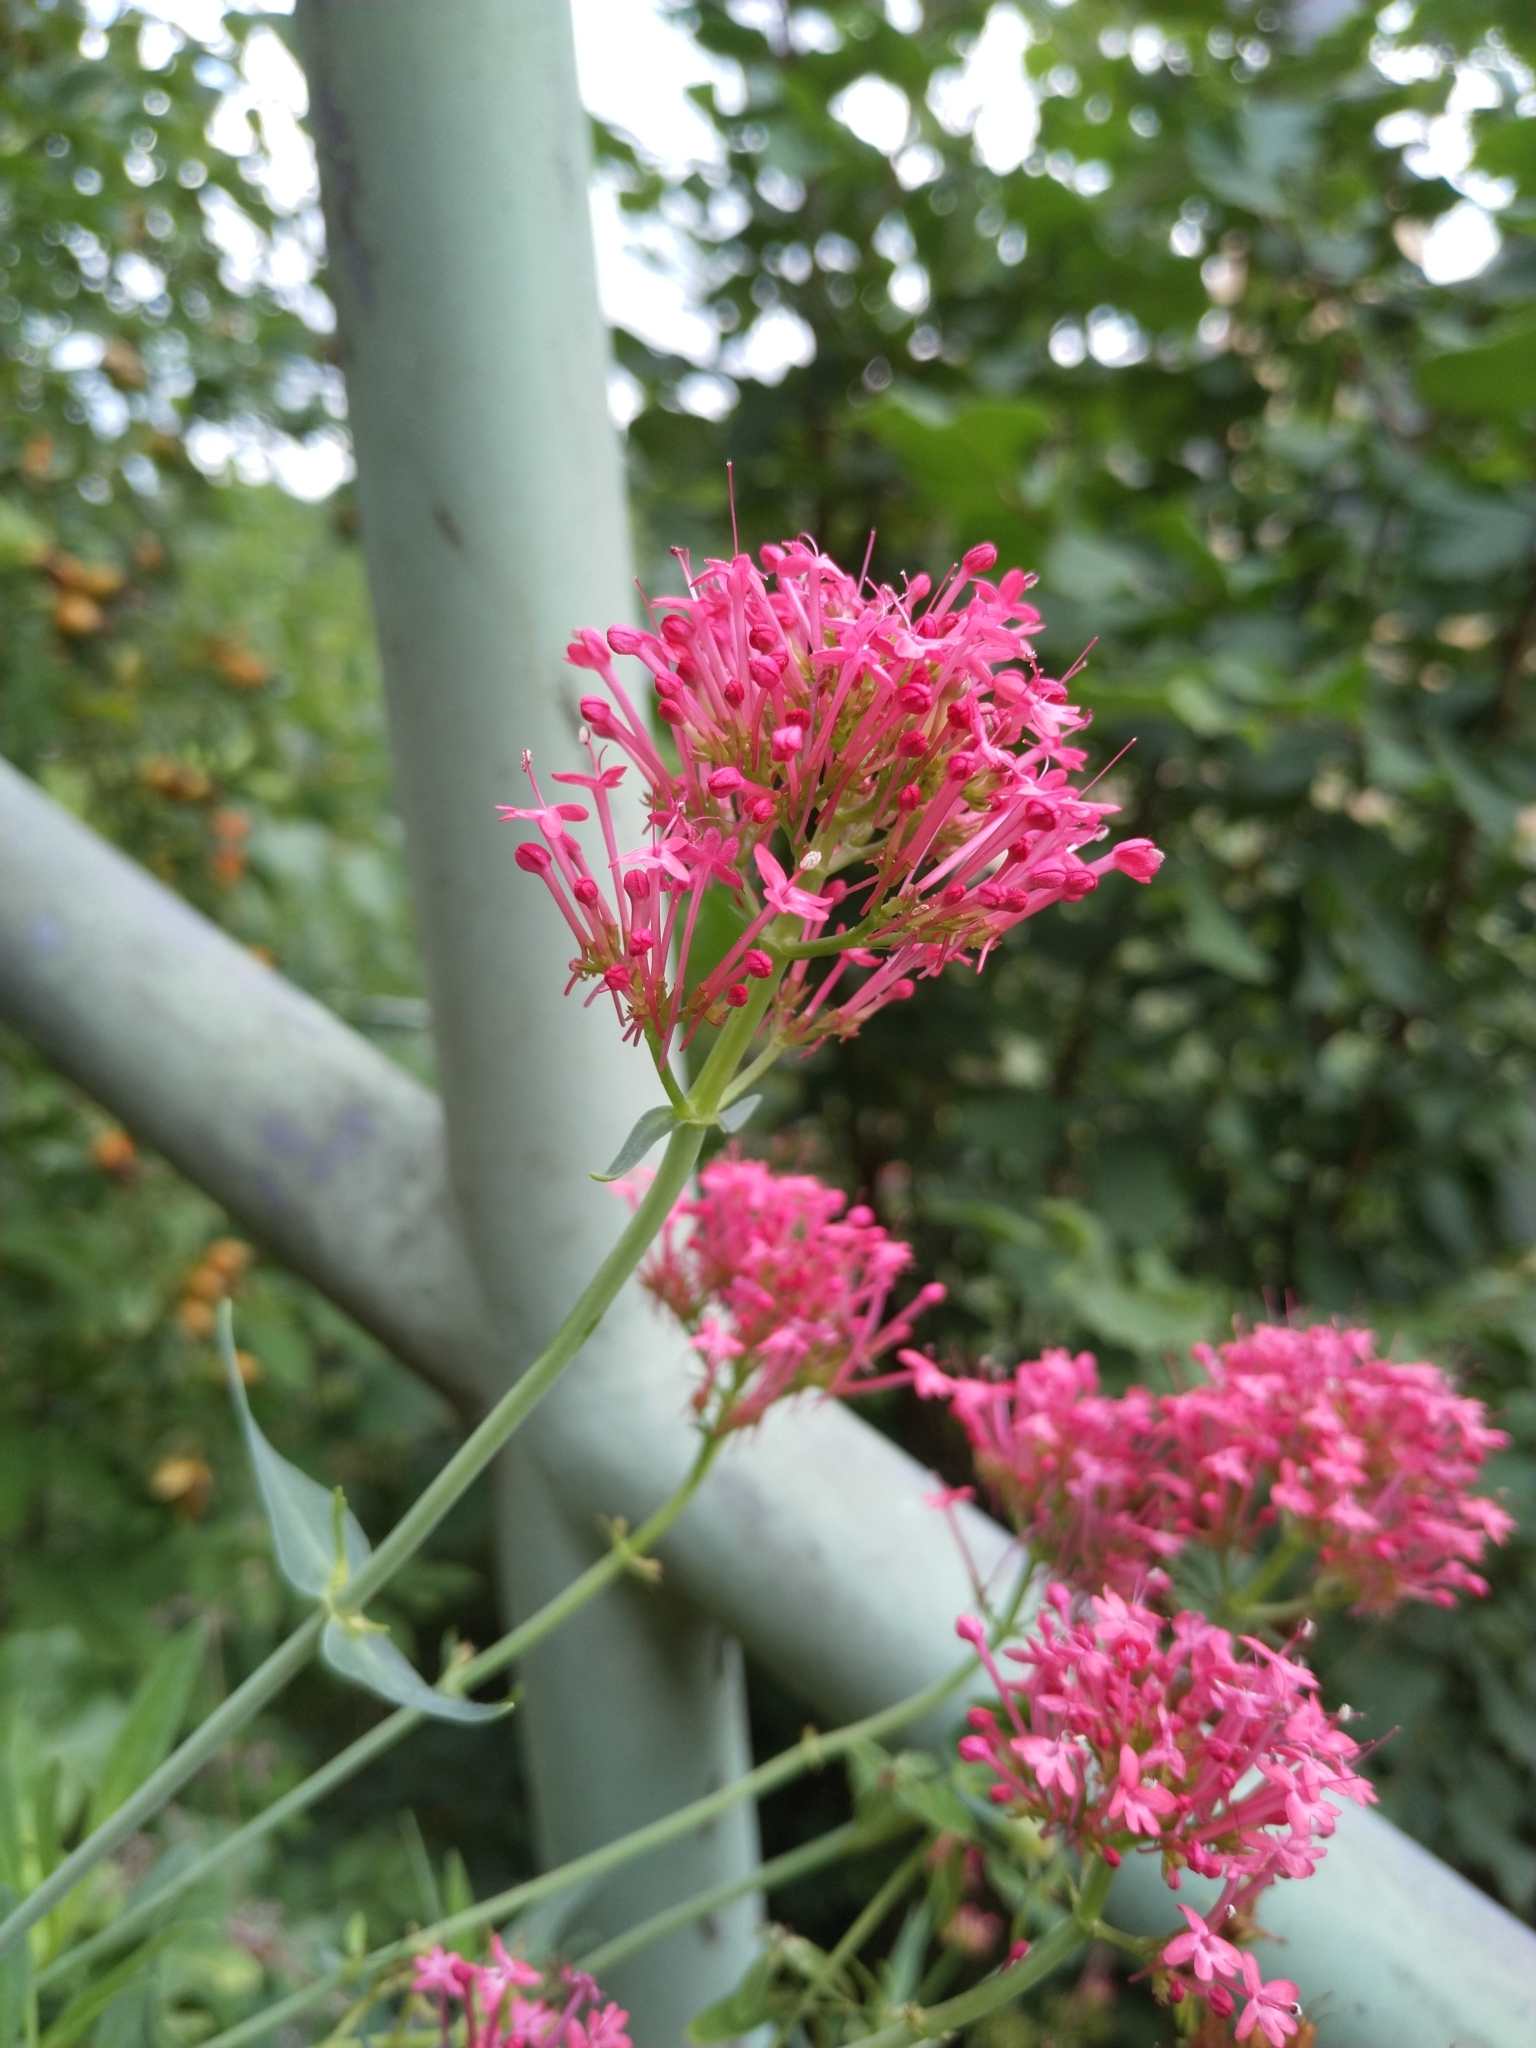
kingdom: Plantae
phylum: Tracheophyta
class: Magnoliopsida
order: Dipsacales
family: Caprifoliaceae
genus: Centranthus
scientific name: Centranthus ruber
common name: Red valerian
